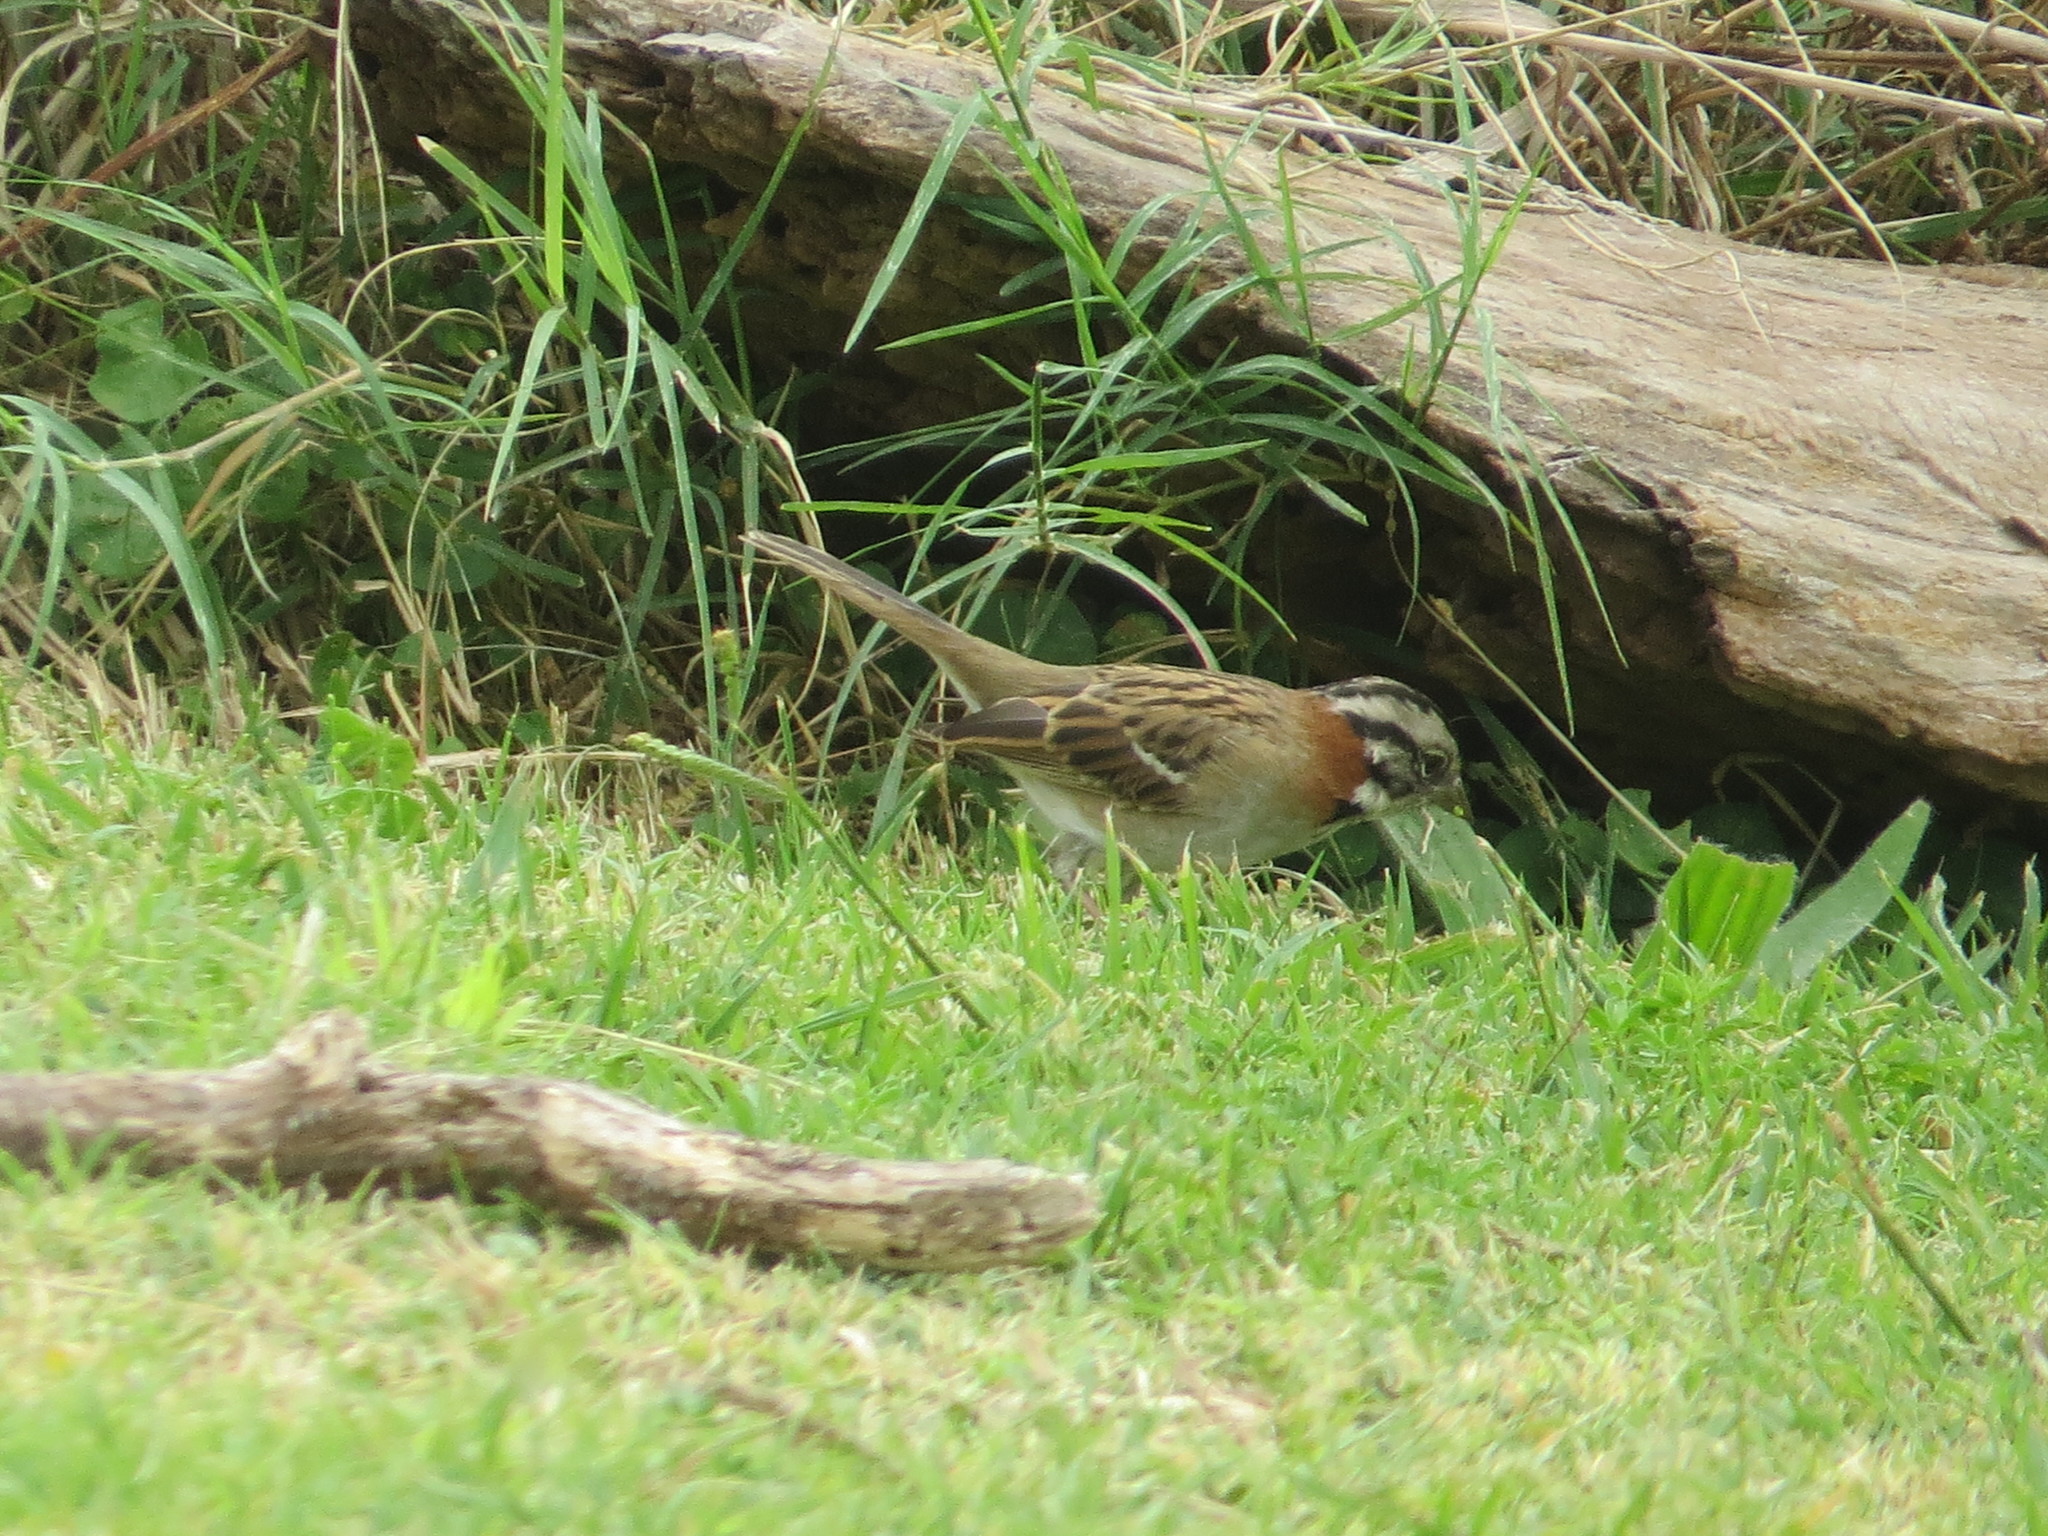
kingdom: Animalia
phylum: Chordata
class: Aves
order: Passeriformes
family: Passerellidae
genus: Zonotrichia
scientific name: Zonotrichia capensis
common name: Rufous-collared sparrow
